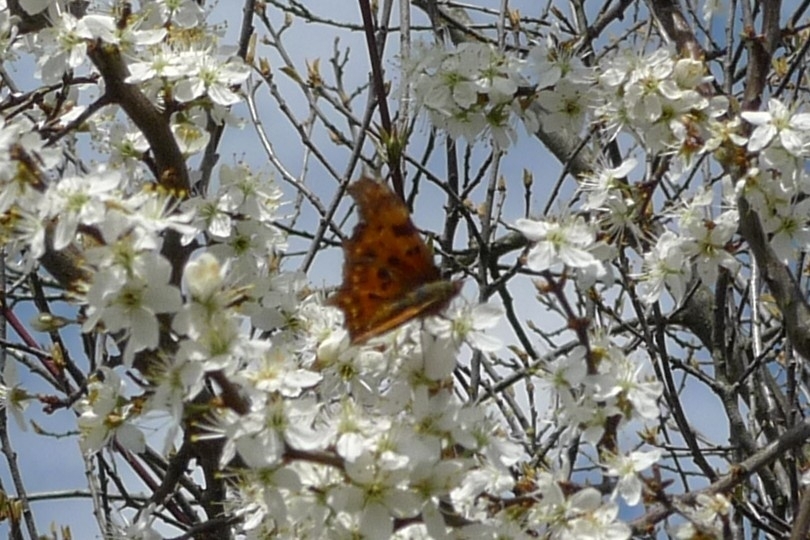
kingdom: Animalia
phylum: Arthropoda
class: Insecta
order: Lepidoptera
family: Nymphalidae
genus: Polygonia
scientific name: Polygonia c-album
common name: Comma
